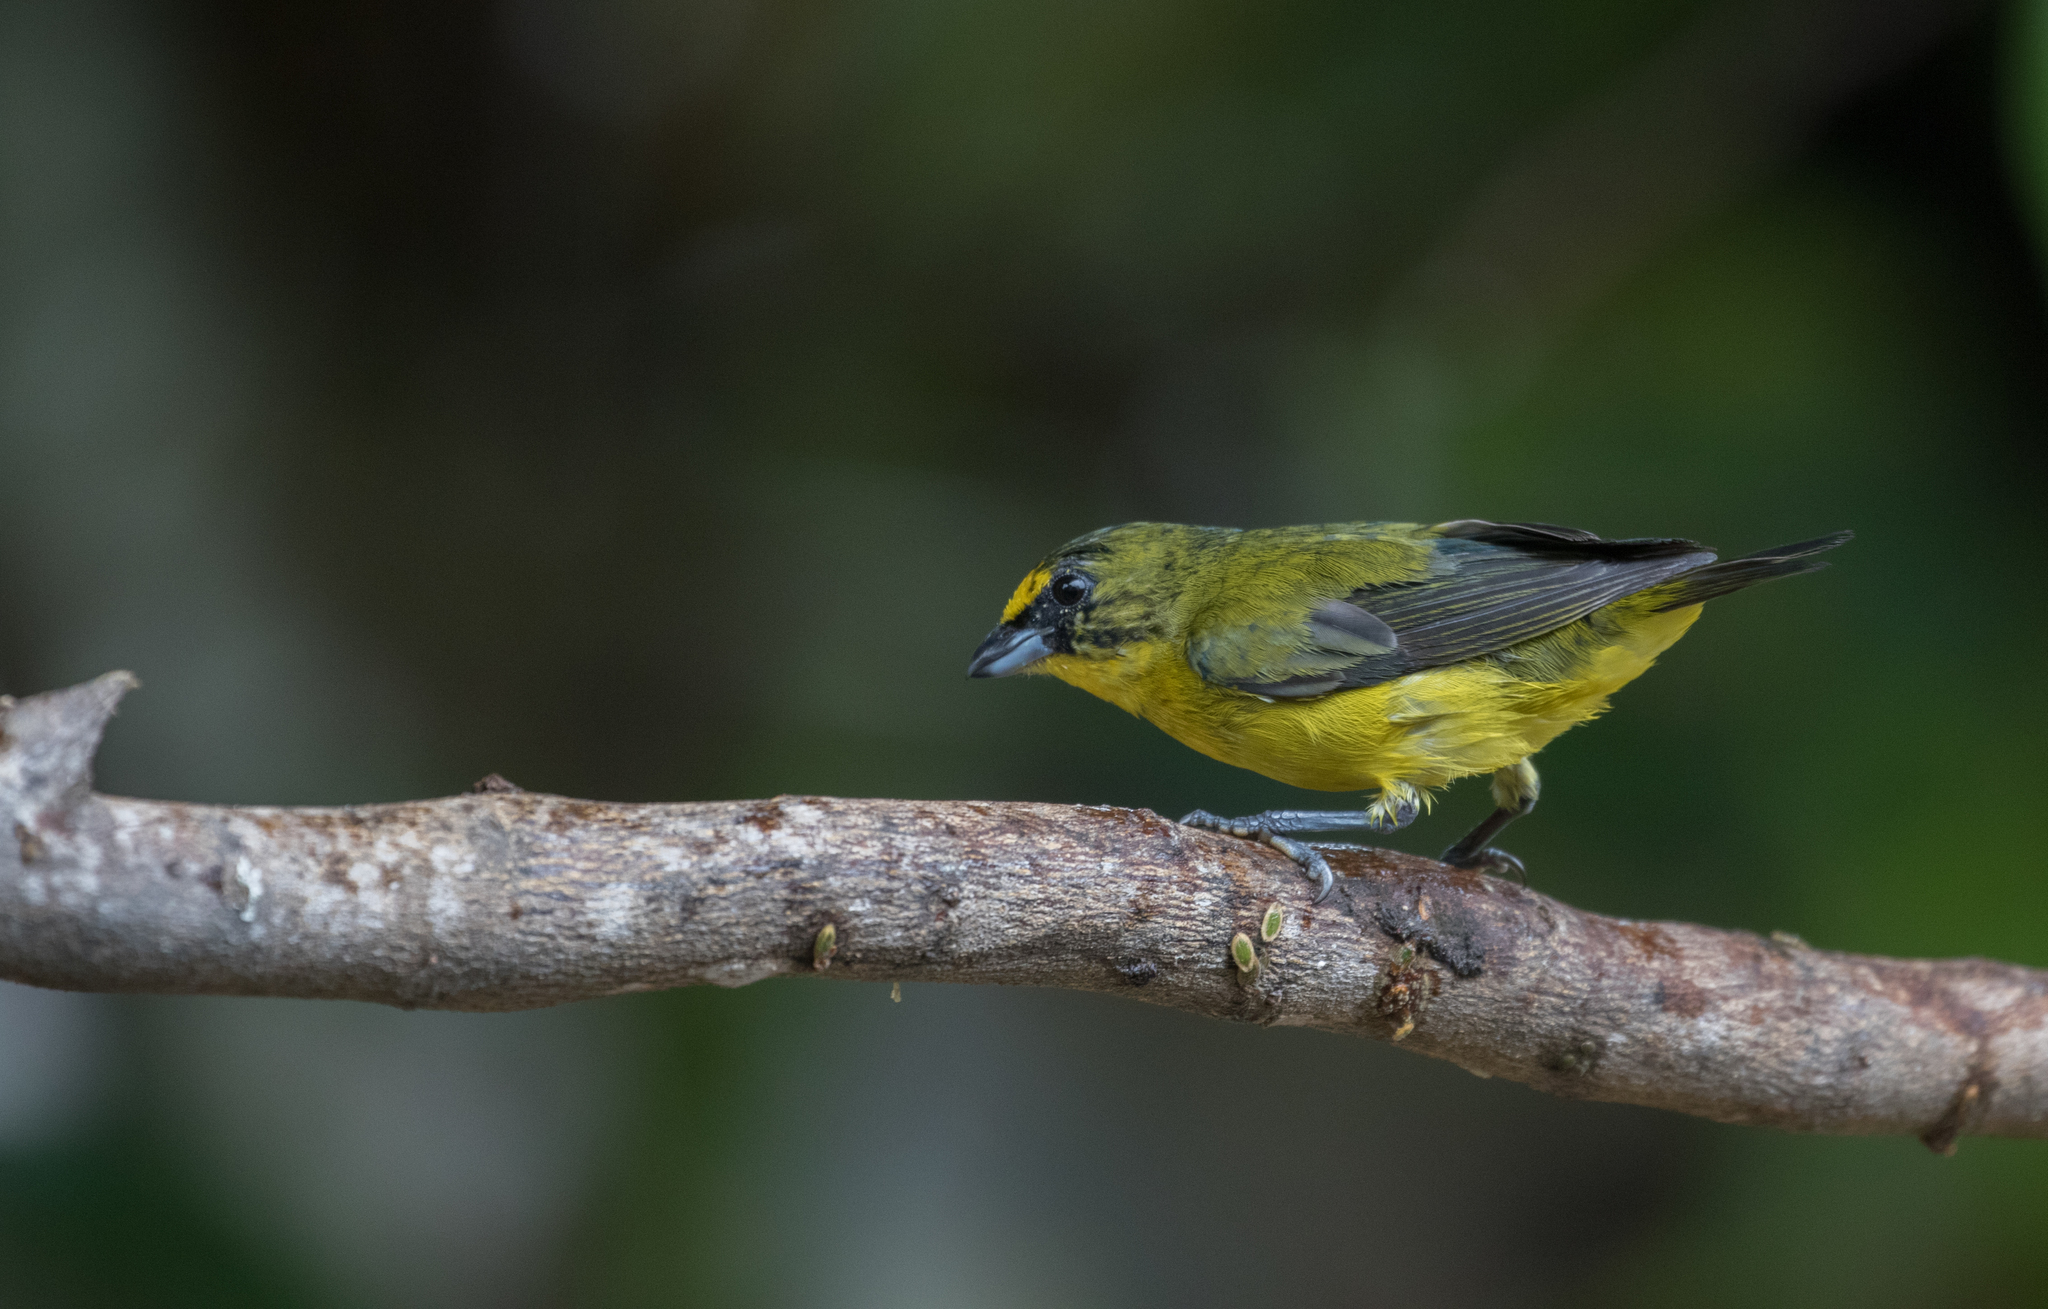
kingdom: Animalia
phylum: Chordata
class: Aves
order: Passeriformes
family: Fringillidae
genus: Euphonia
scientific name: Euphonia laniirostris
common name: Thick-billed euphonia
